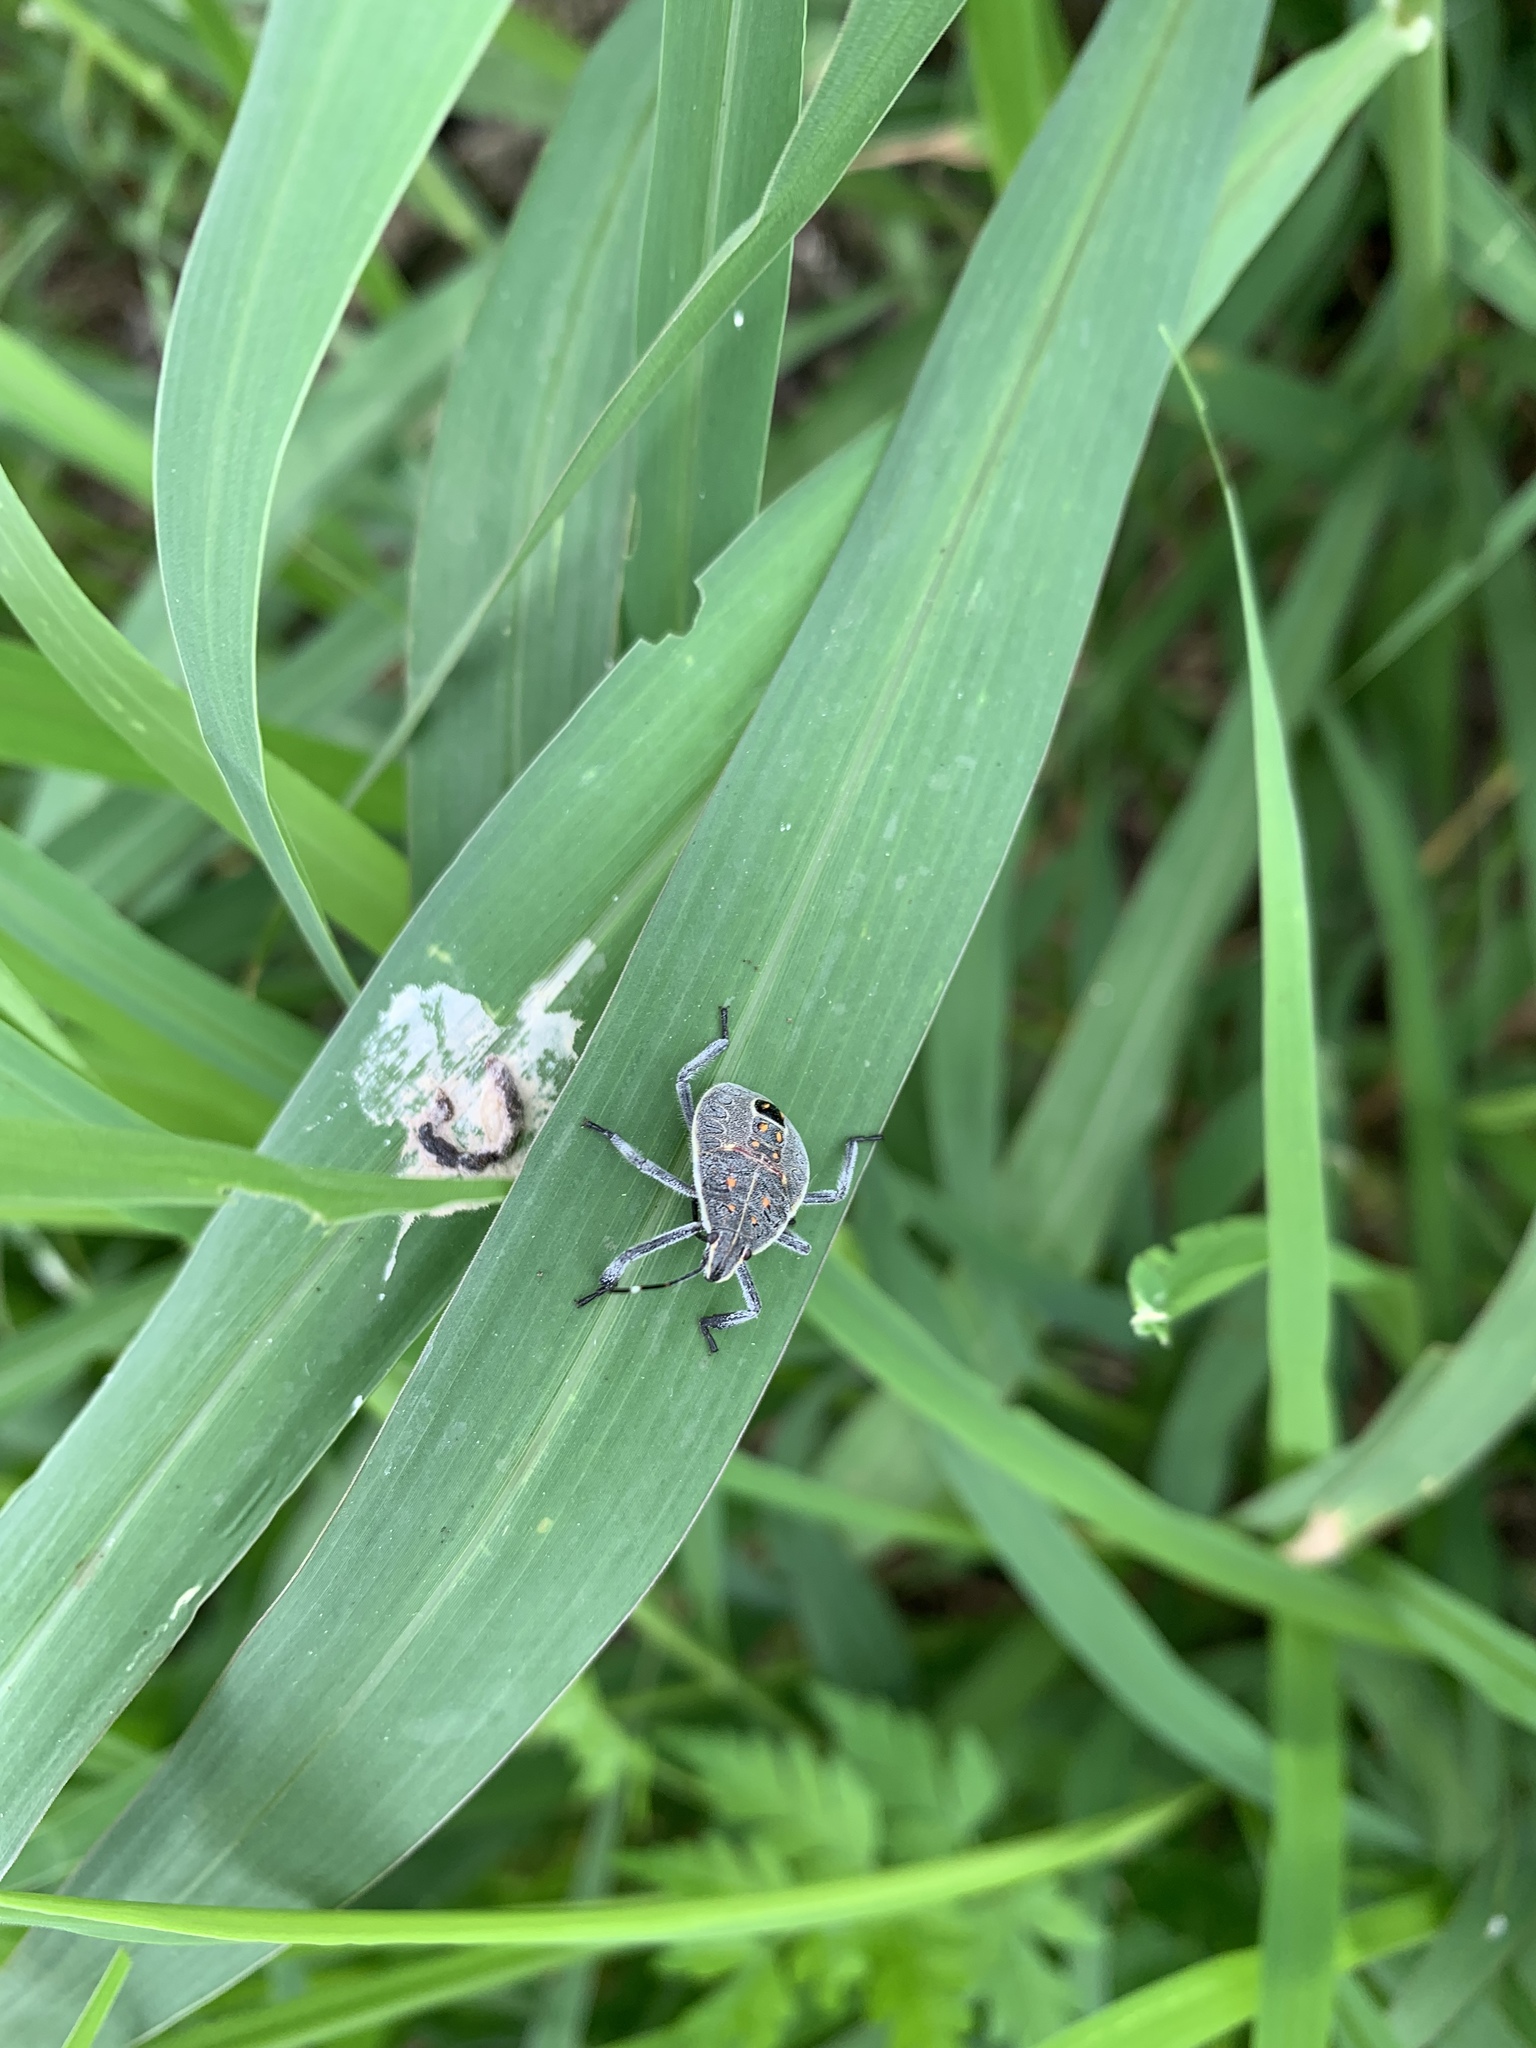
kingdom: Animalia
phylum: Arthropoda
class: Insecta
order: Hemiptera
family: Pentatomidae
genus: Erthesina
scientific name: Erthesina fullo
